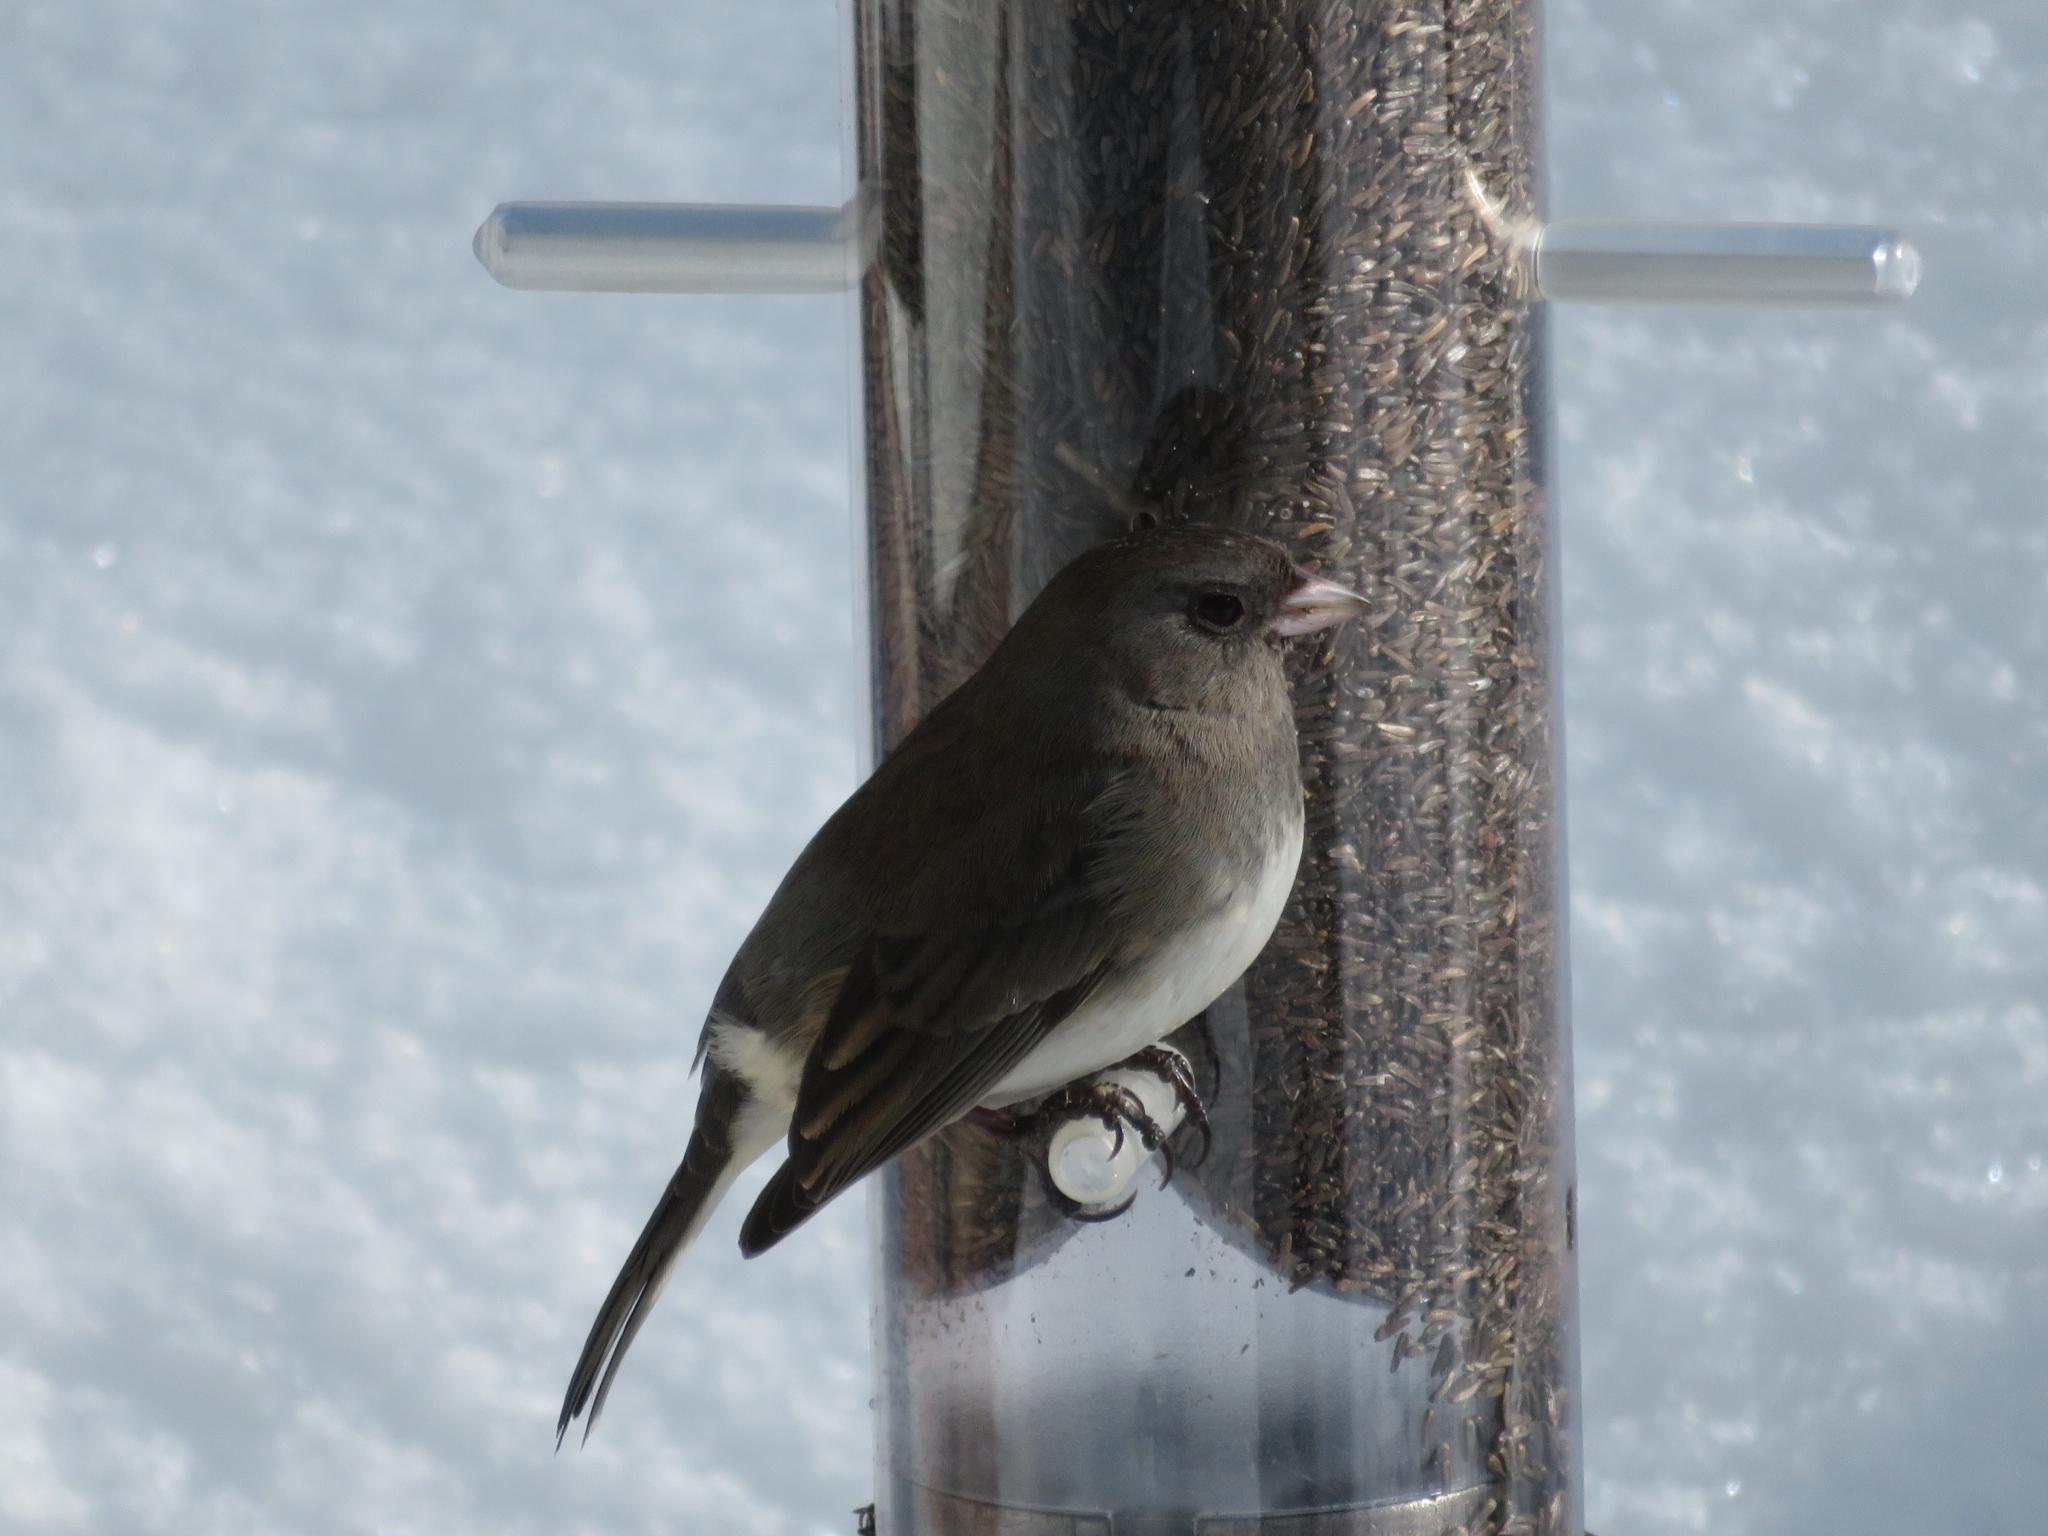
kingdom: Animalia
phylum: Chordata
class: Aves
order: Passeriformes
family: Passerellidae
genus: Junco
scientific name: Junco hyemalis
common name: Dark-eyed junco
